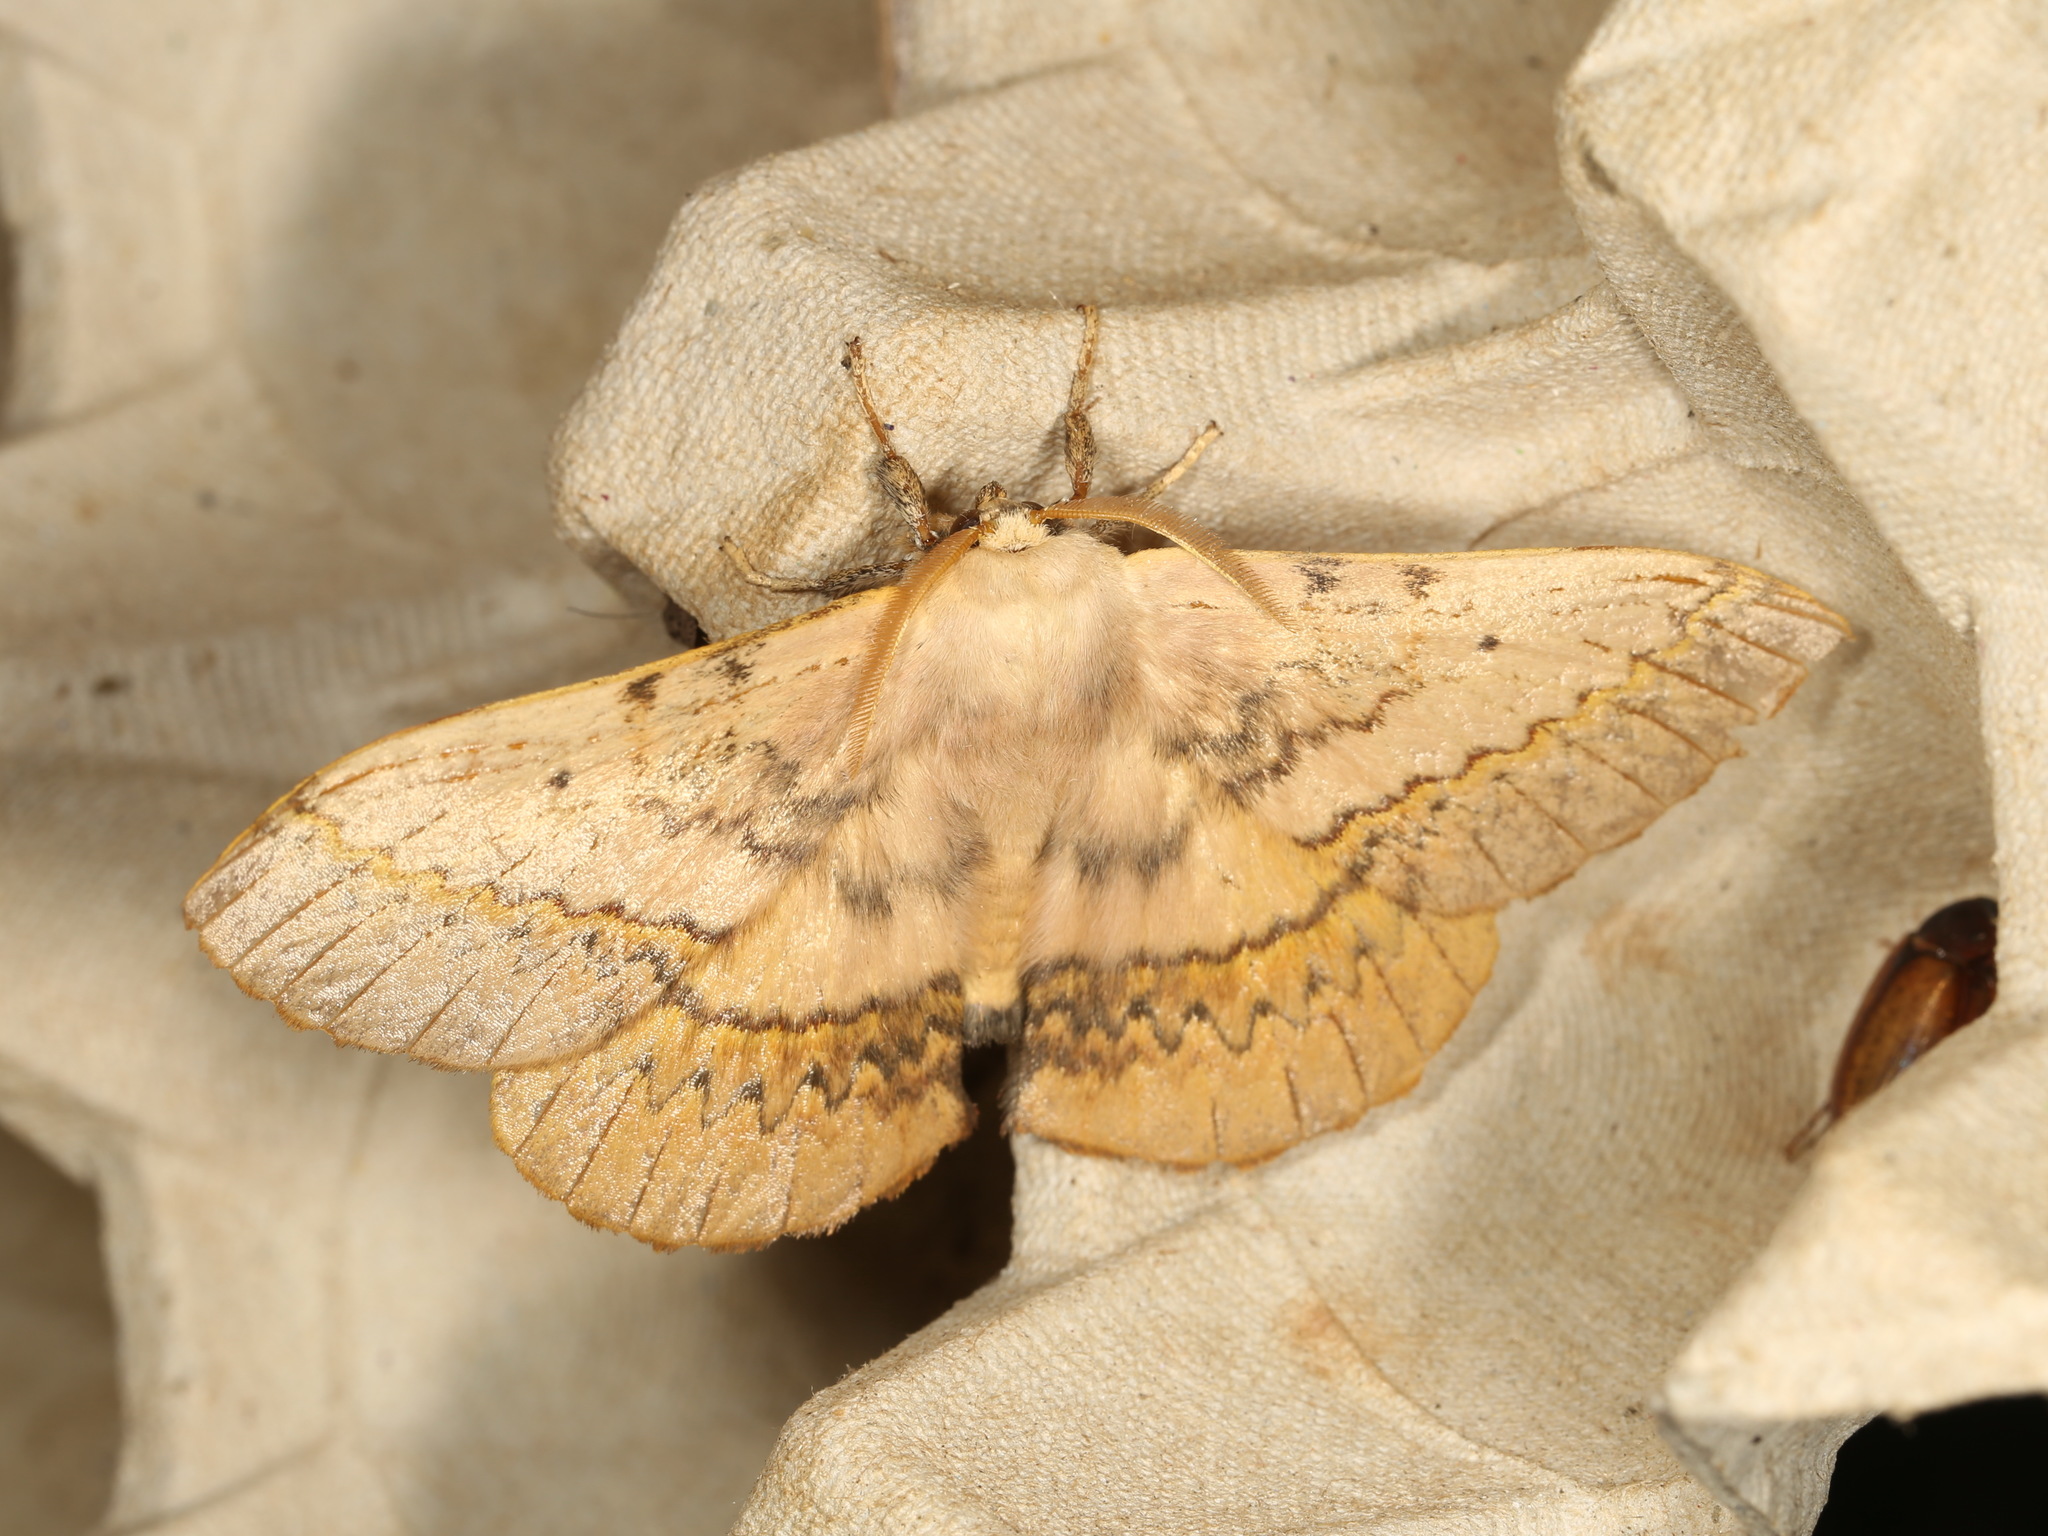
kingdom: Animalia
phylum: Arthropoda
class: Insecta
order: Lepidoptera
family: Anthelidae
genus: Anthela
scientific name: Anthela varia
